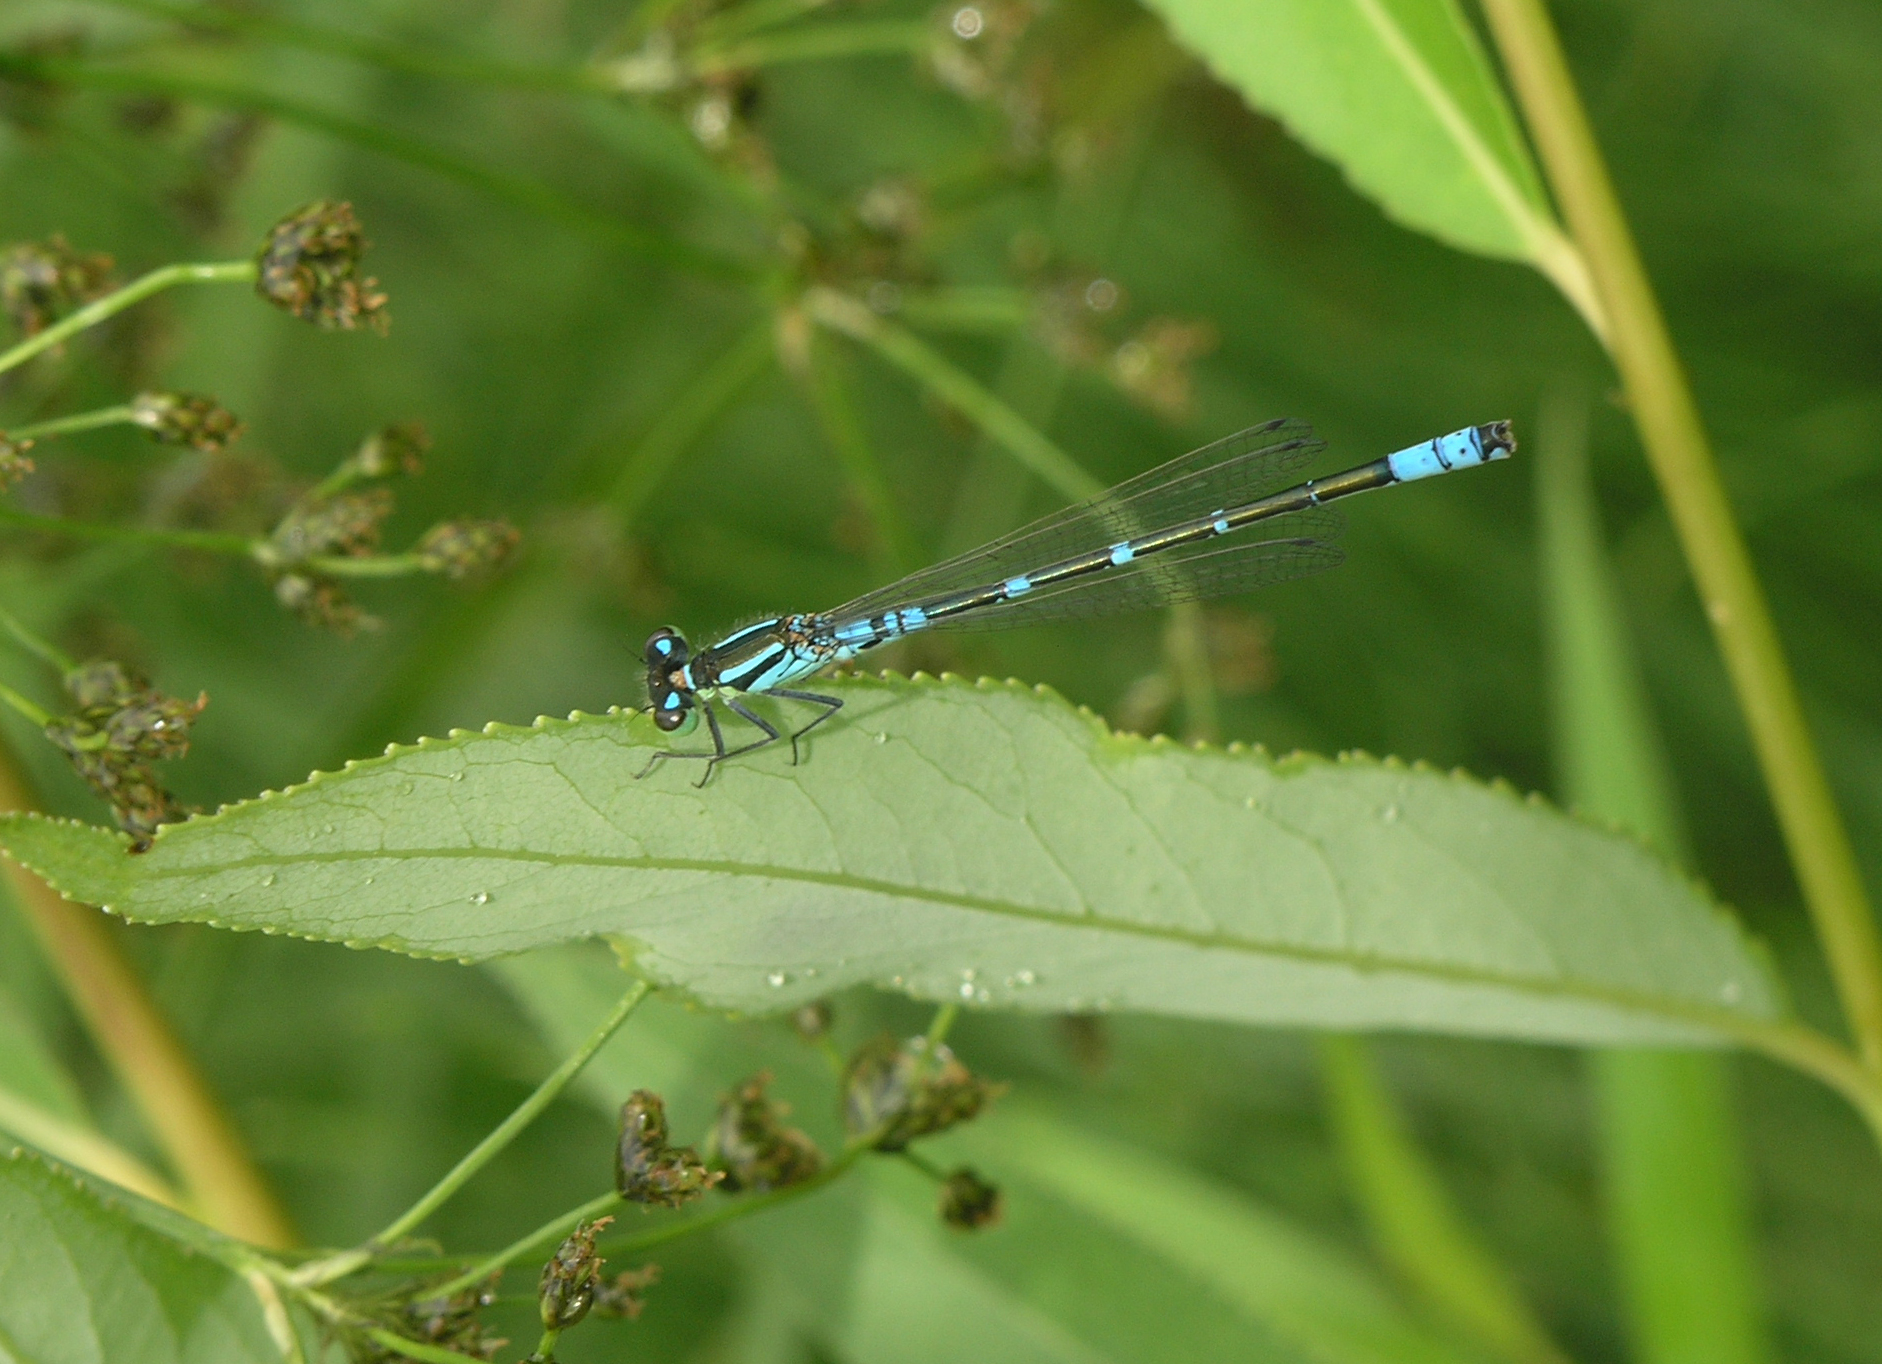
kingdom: Animalia
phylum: Arthropoda
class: Insecta
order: Odonata
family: Coenagrionidae
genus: Coenagrion
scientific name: Coenagrion lunulatum
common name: Irish damselfly
